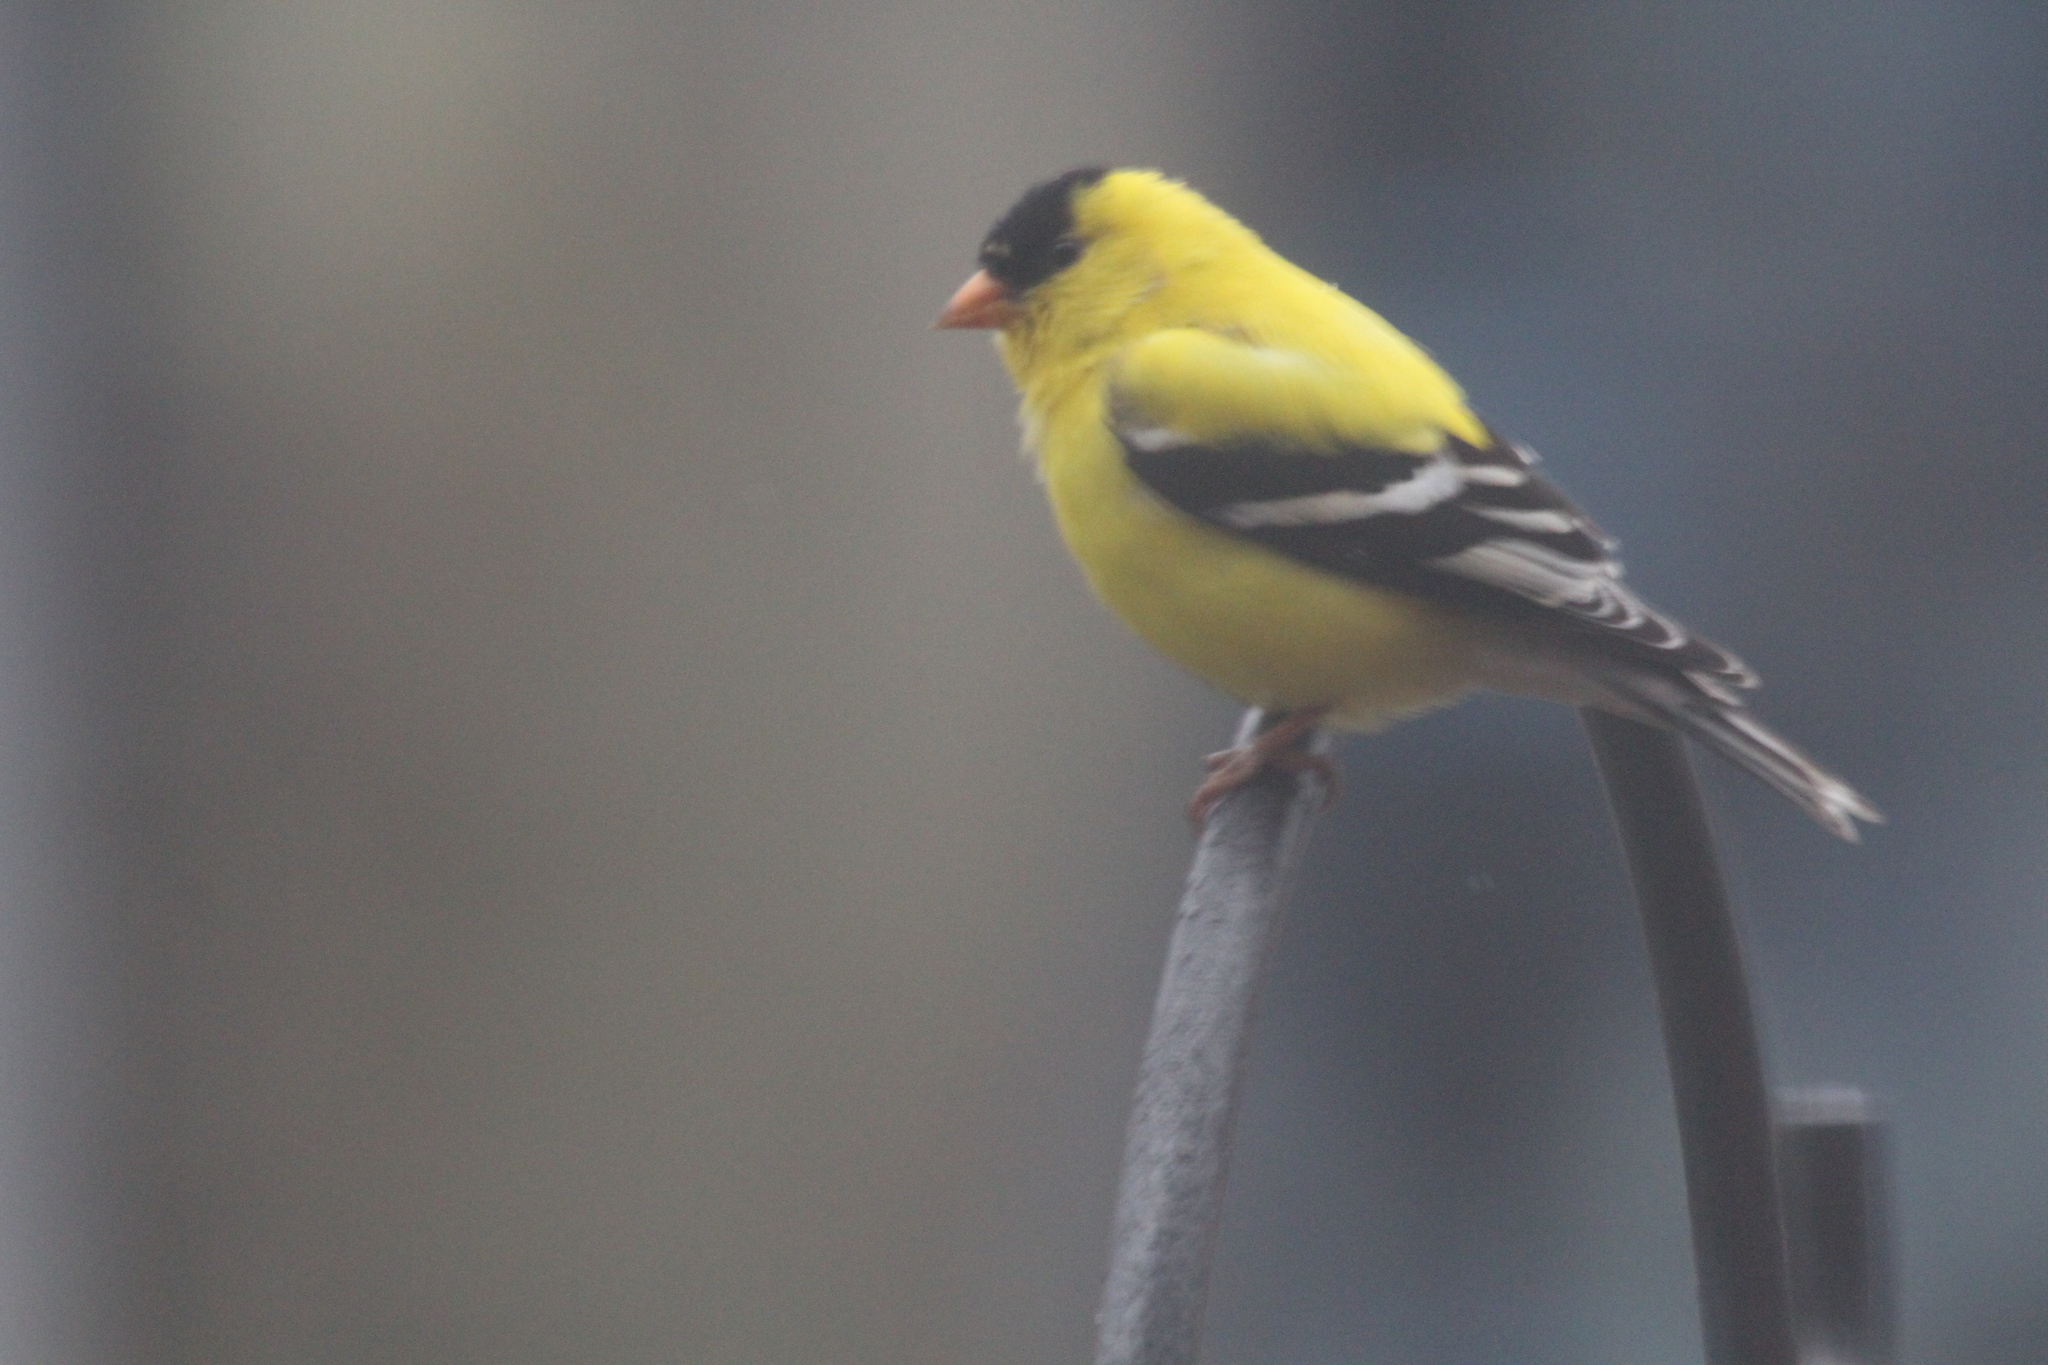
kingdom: Animalia
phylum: Chordata
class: Aves
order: Passeriformes
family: Fringillidae
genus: Spinus
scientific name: Spinus tristis
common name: American goldfinch
